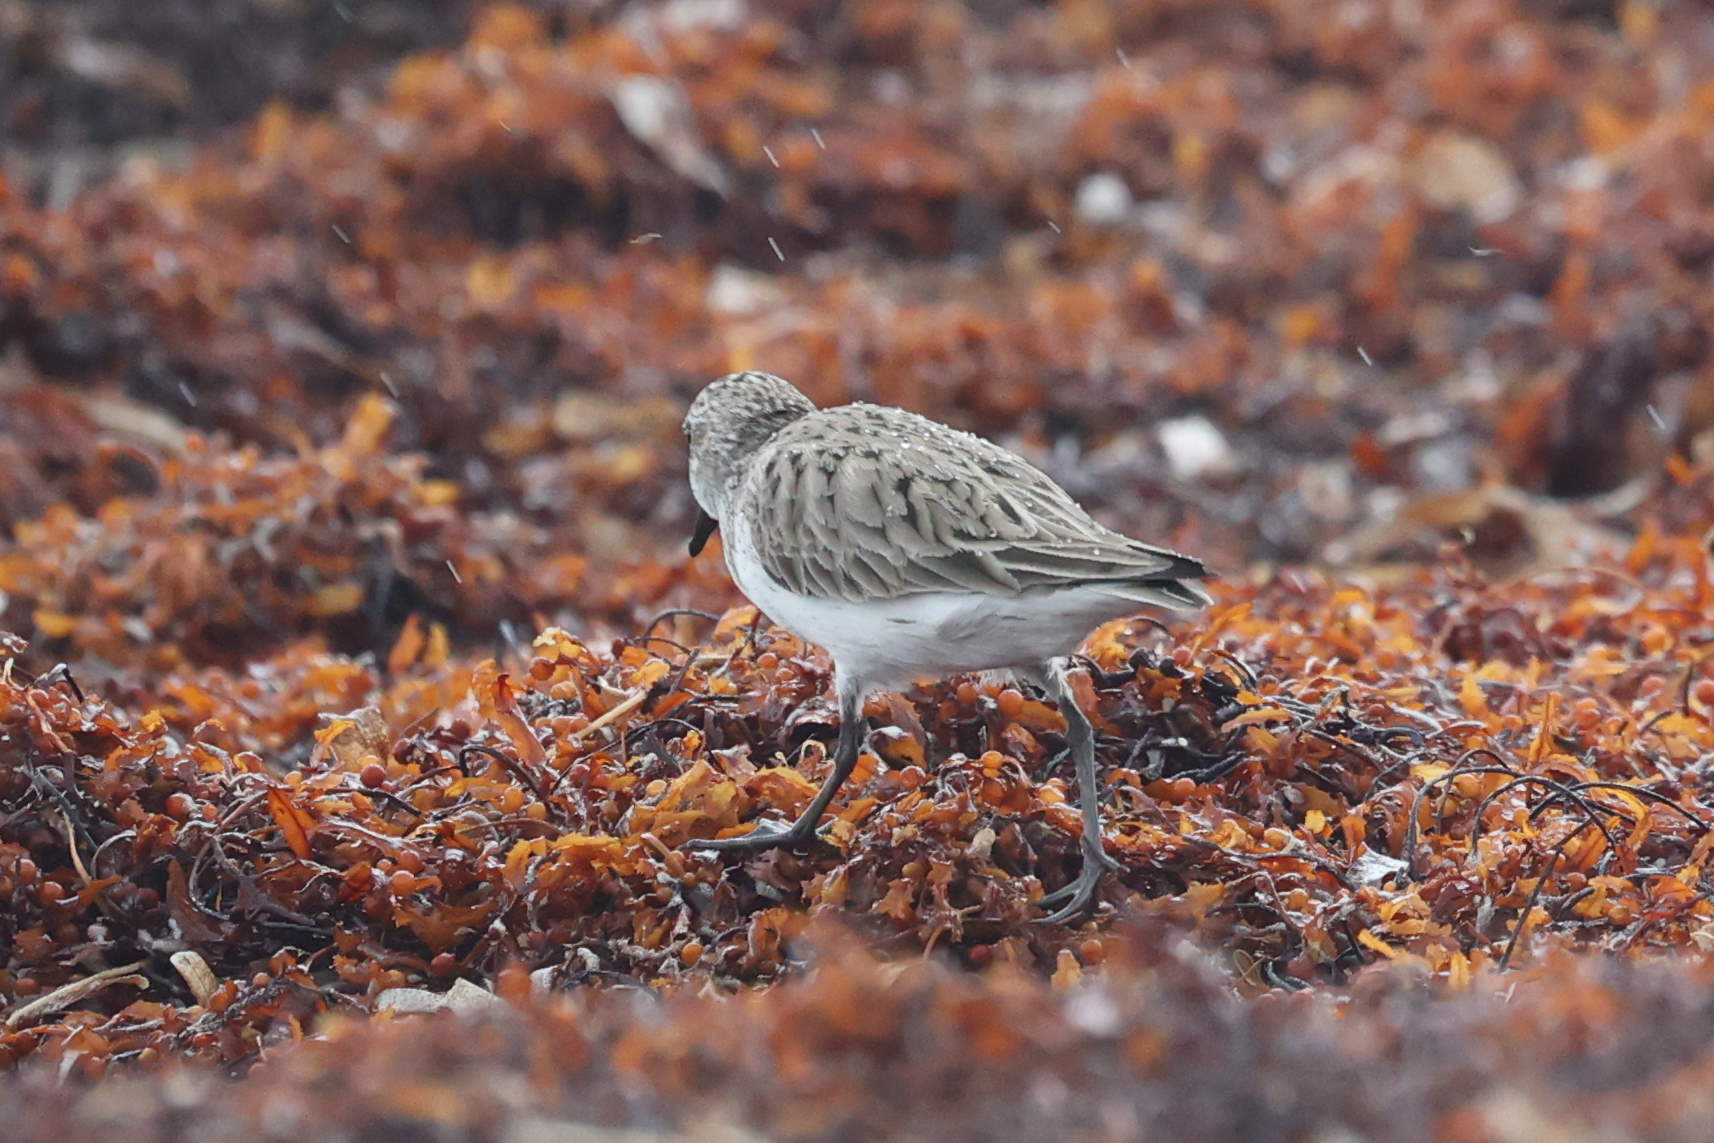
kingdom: Animalia
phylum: Chordata
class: Aves
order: Charadriiformes
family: Scolopacidae
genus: Calidris
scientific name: Calidris pusilla
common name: Semipalmated sandpiper
